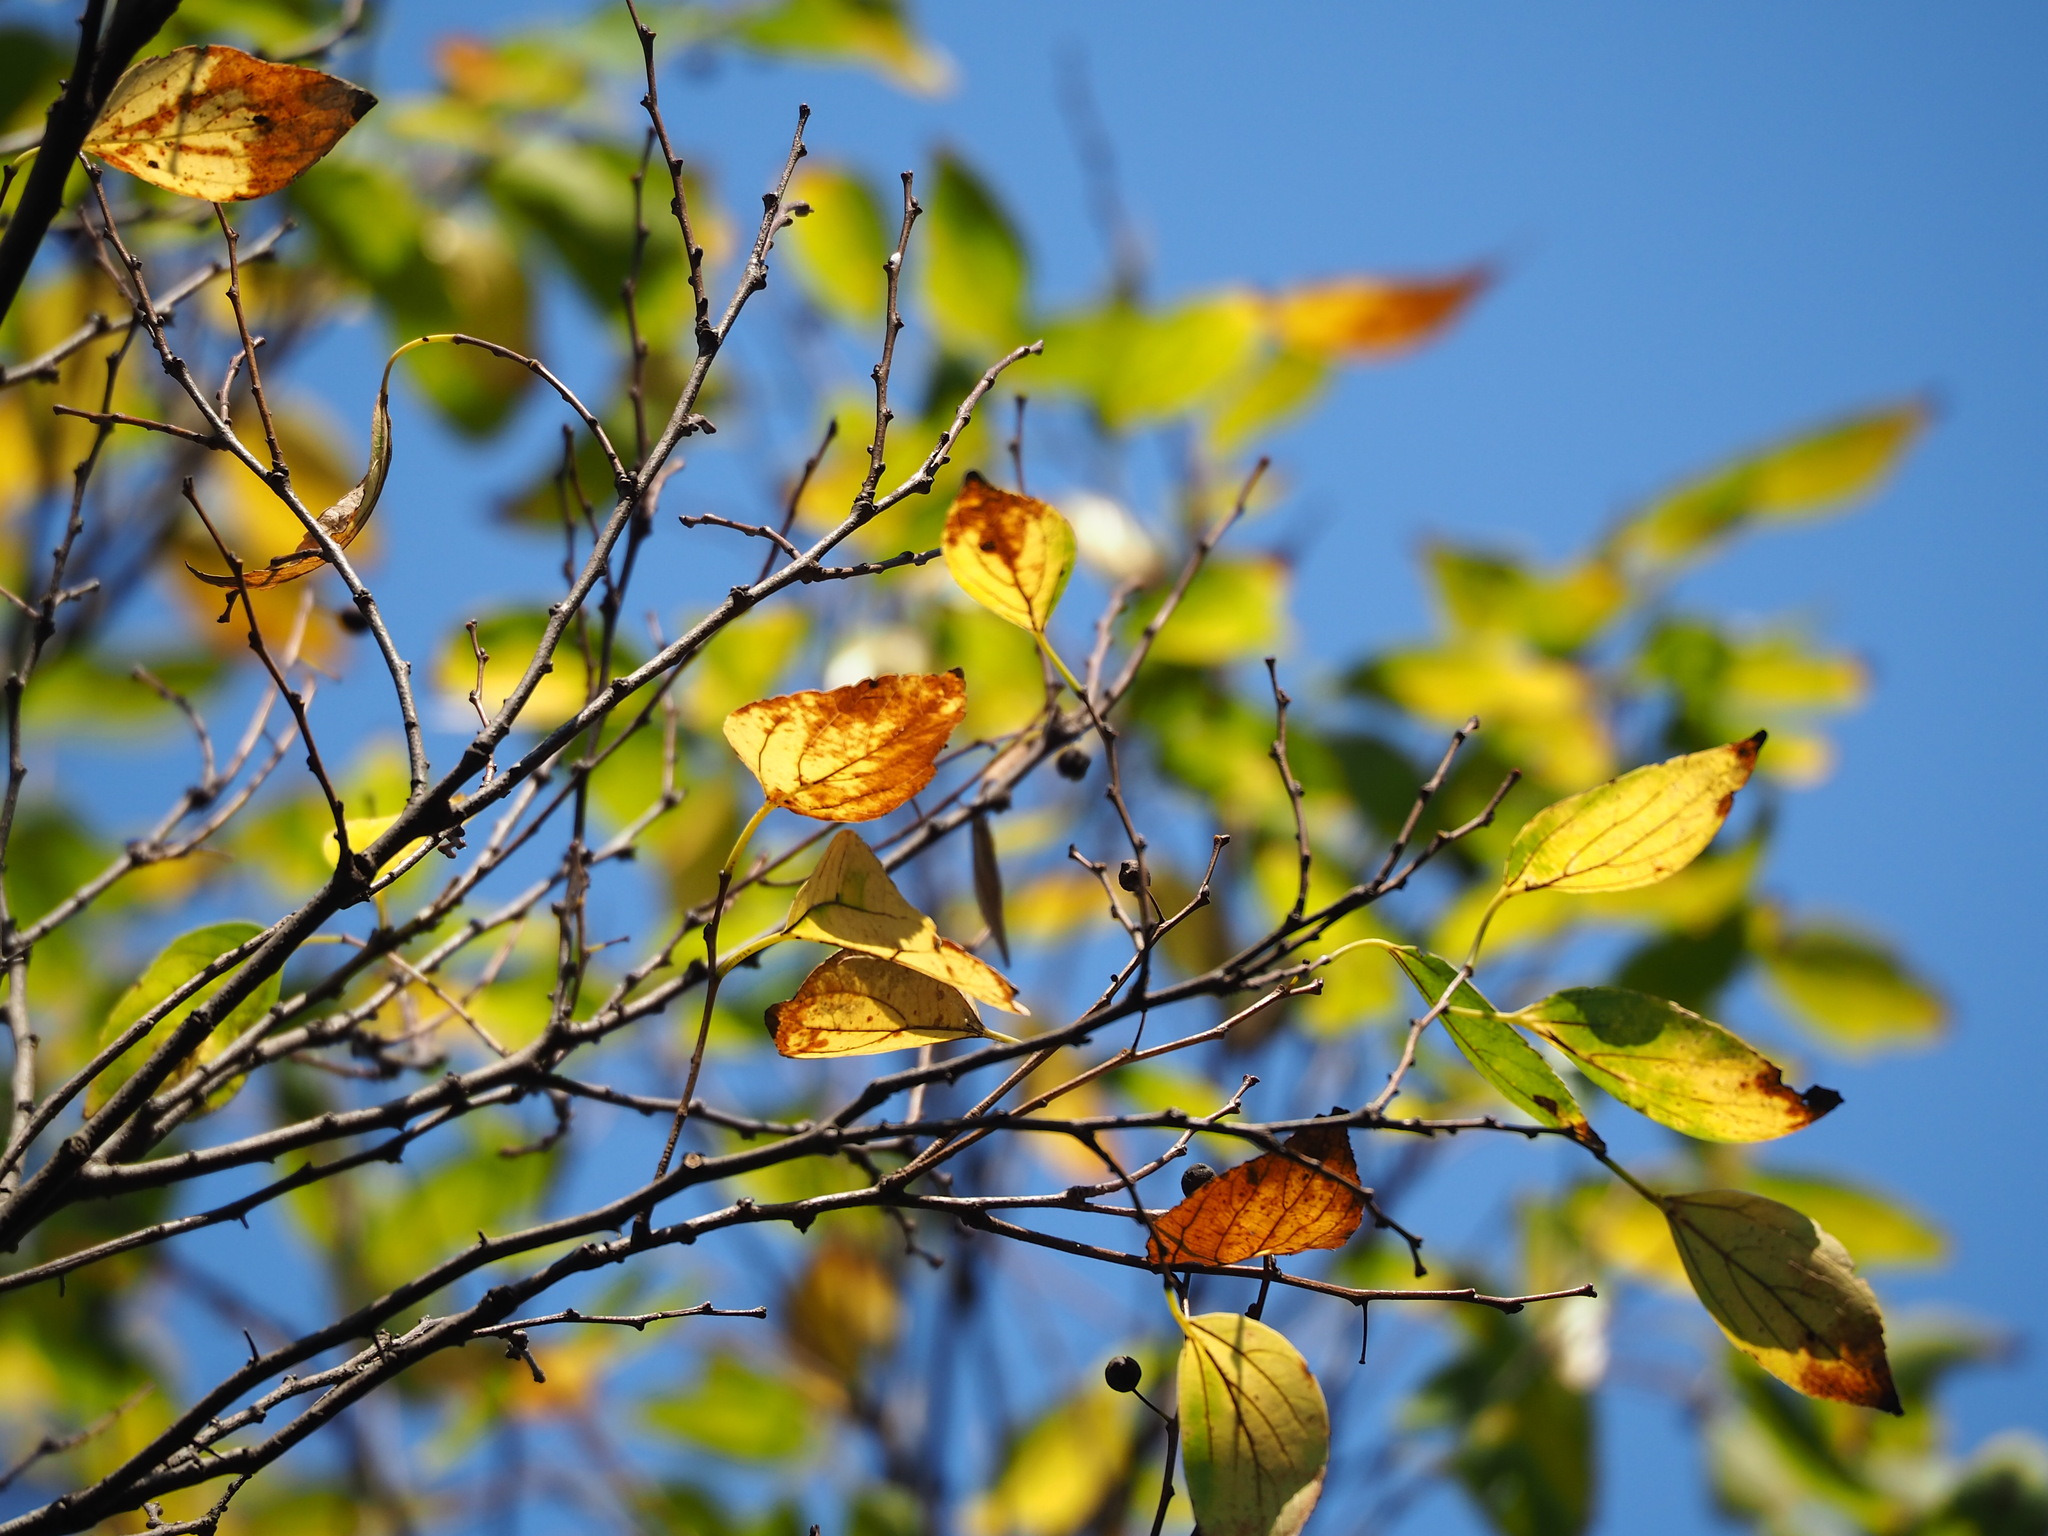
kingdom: Plantae
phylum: Tracheophyta
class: Magnoliopsida
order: Rosales
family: Cannabaceae
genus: Celtis
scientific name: Celtis sinensis
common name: Chinese hackberry
